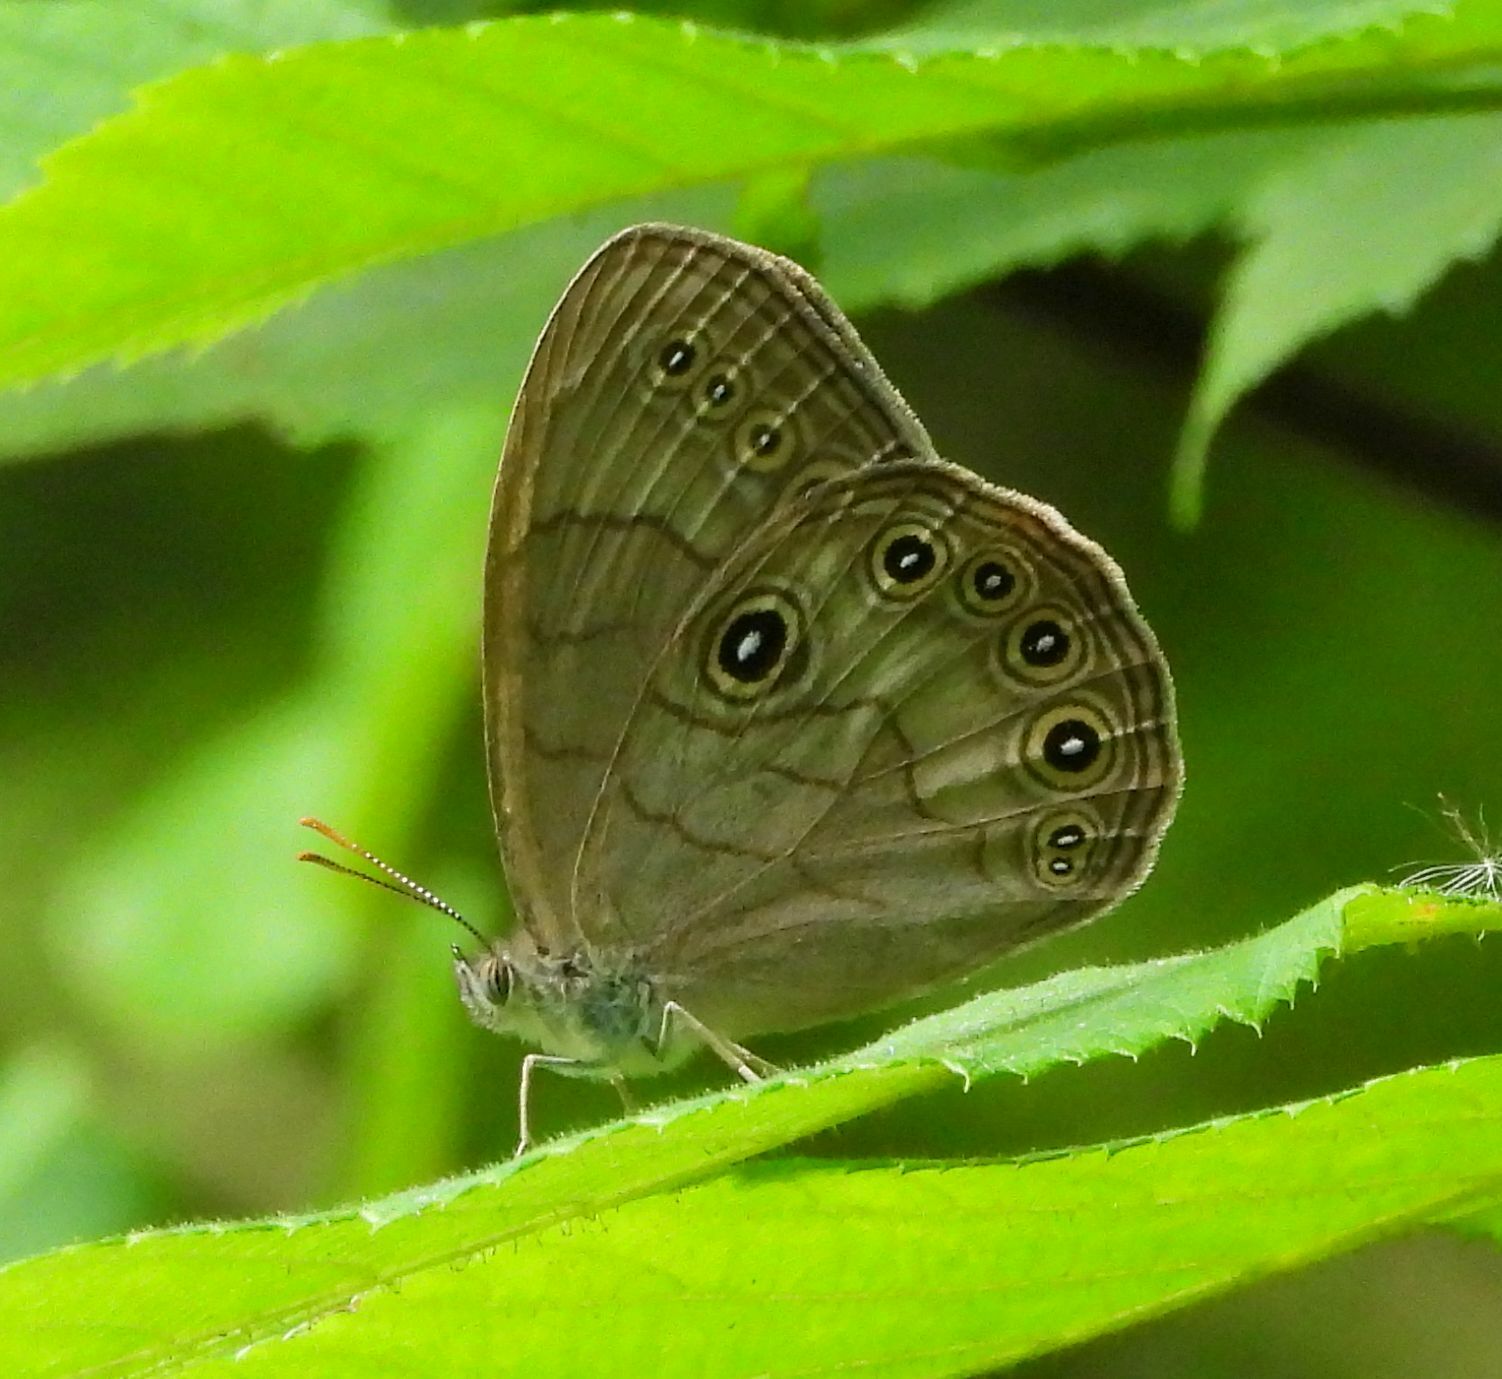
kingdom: Animalia
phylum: Arthropoda
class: Insecta
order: Lepidoptera
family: Nymphalidae
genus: Lethe
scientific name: Lethe eurydice
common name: Eyed brown
